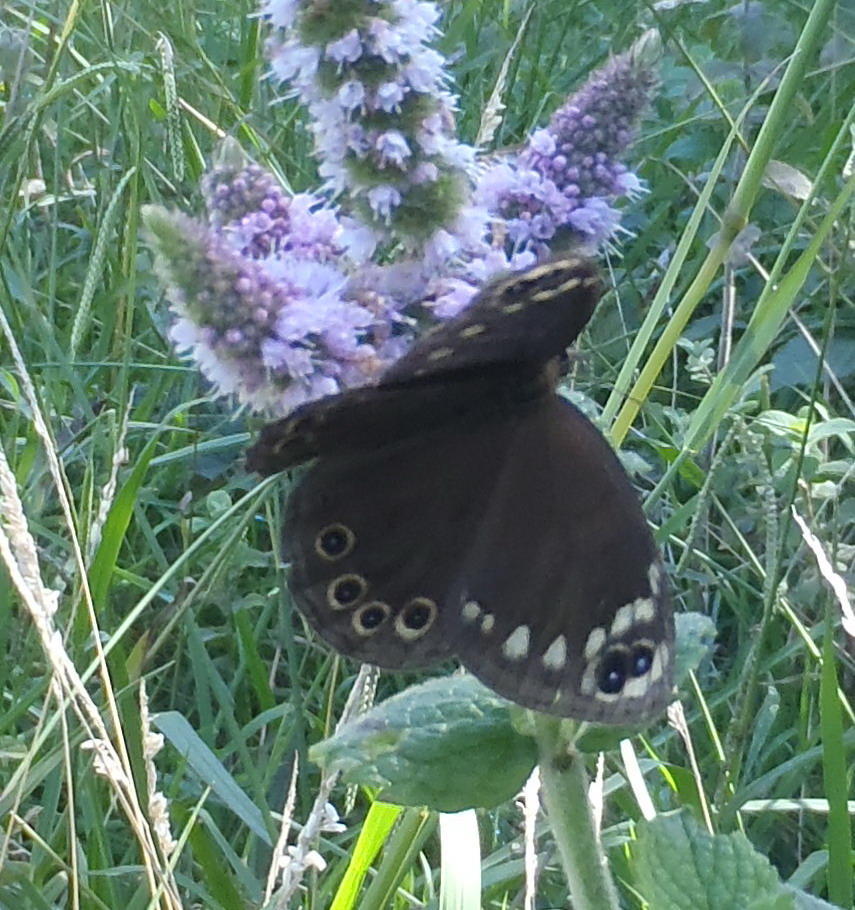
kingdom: Animalia
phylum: Arthropoda
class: Insecta
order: Lepidoptera
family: Nymphalidae
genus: Dira
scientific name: Dira clytus
